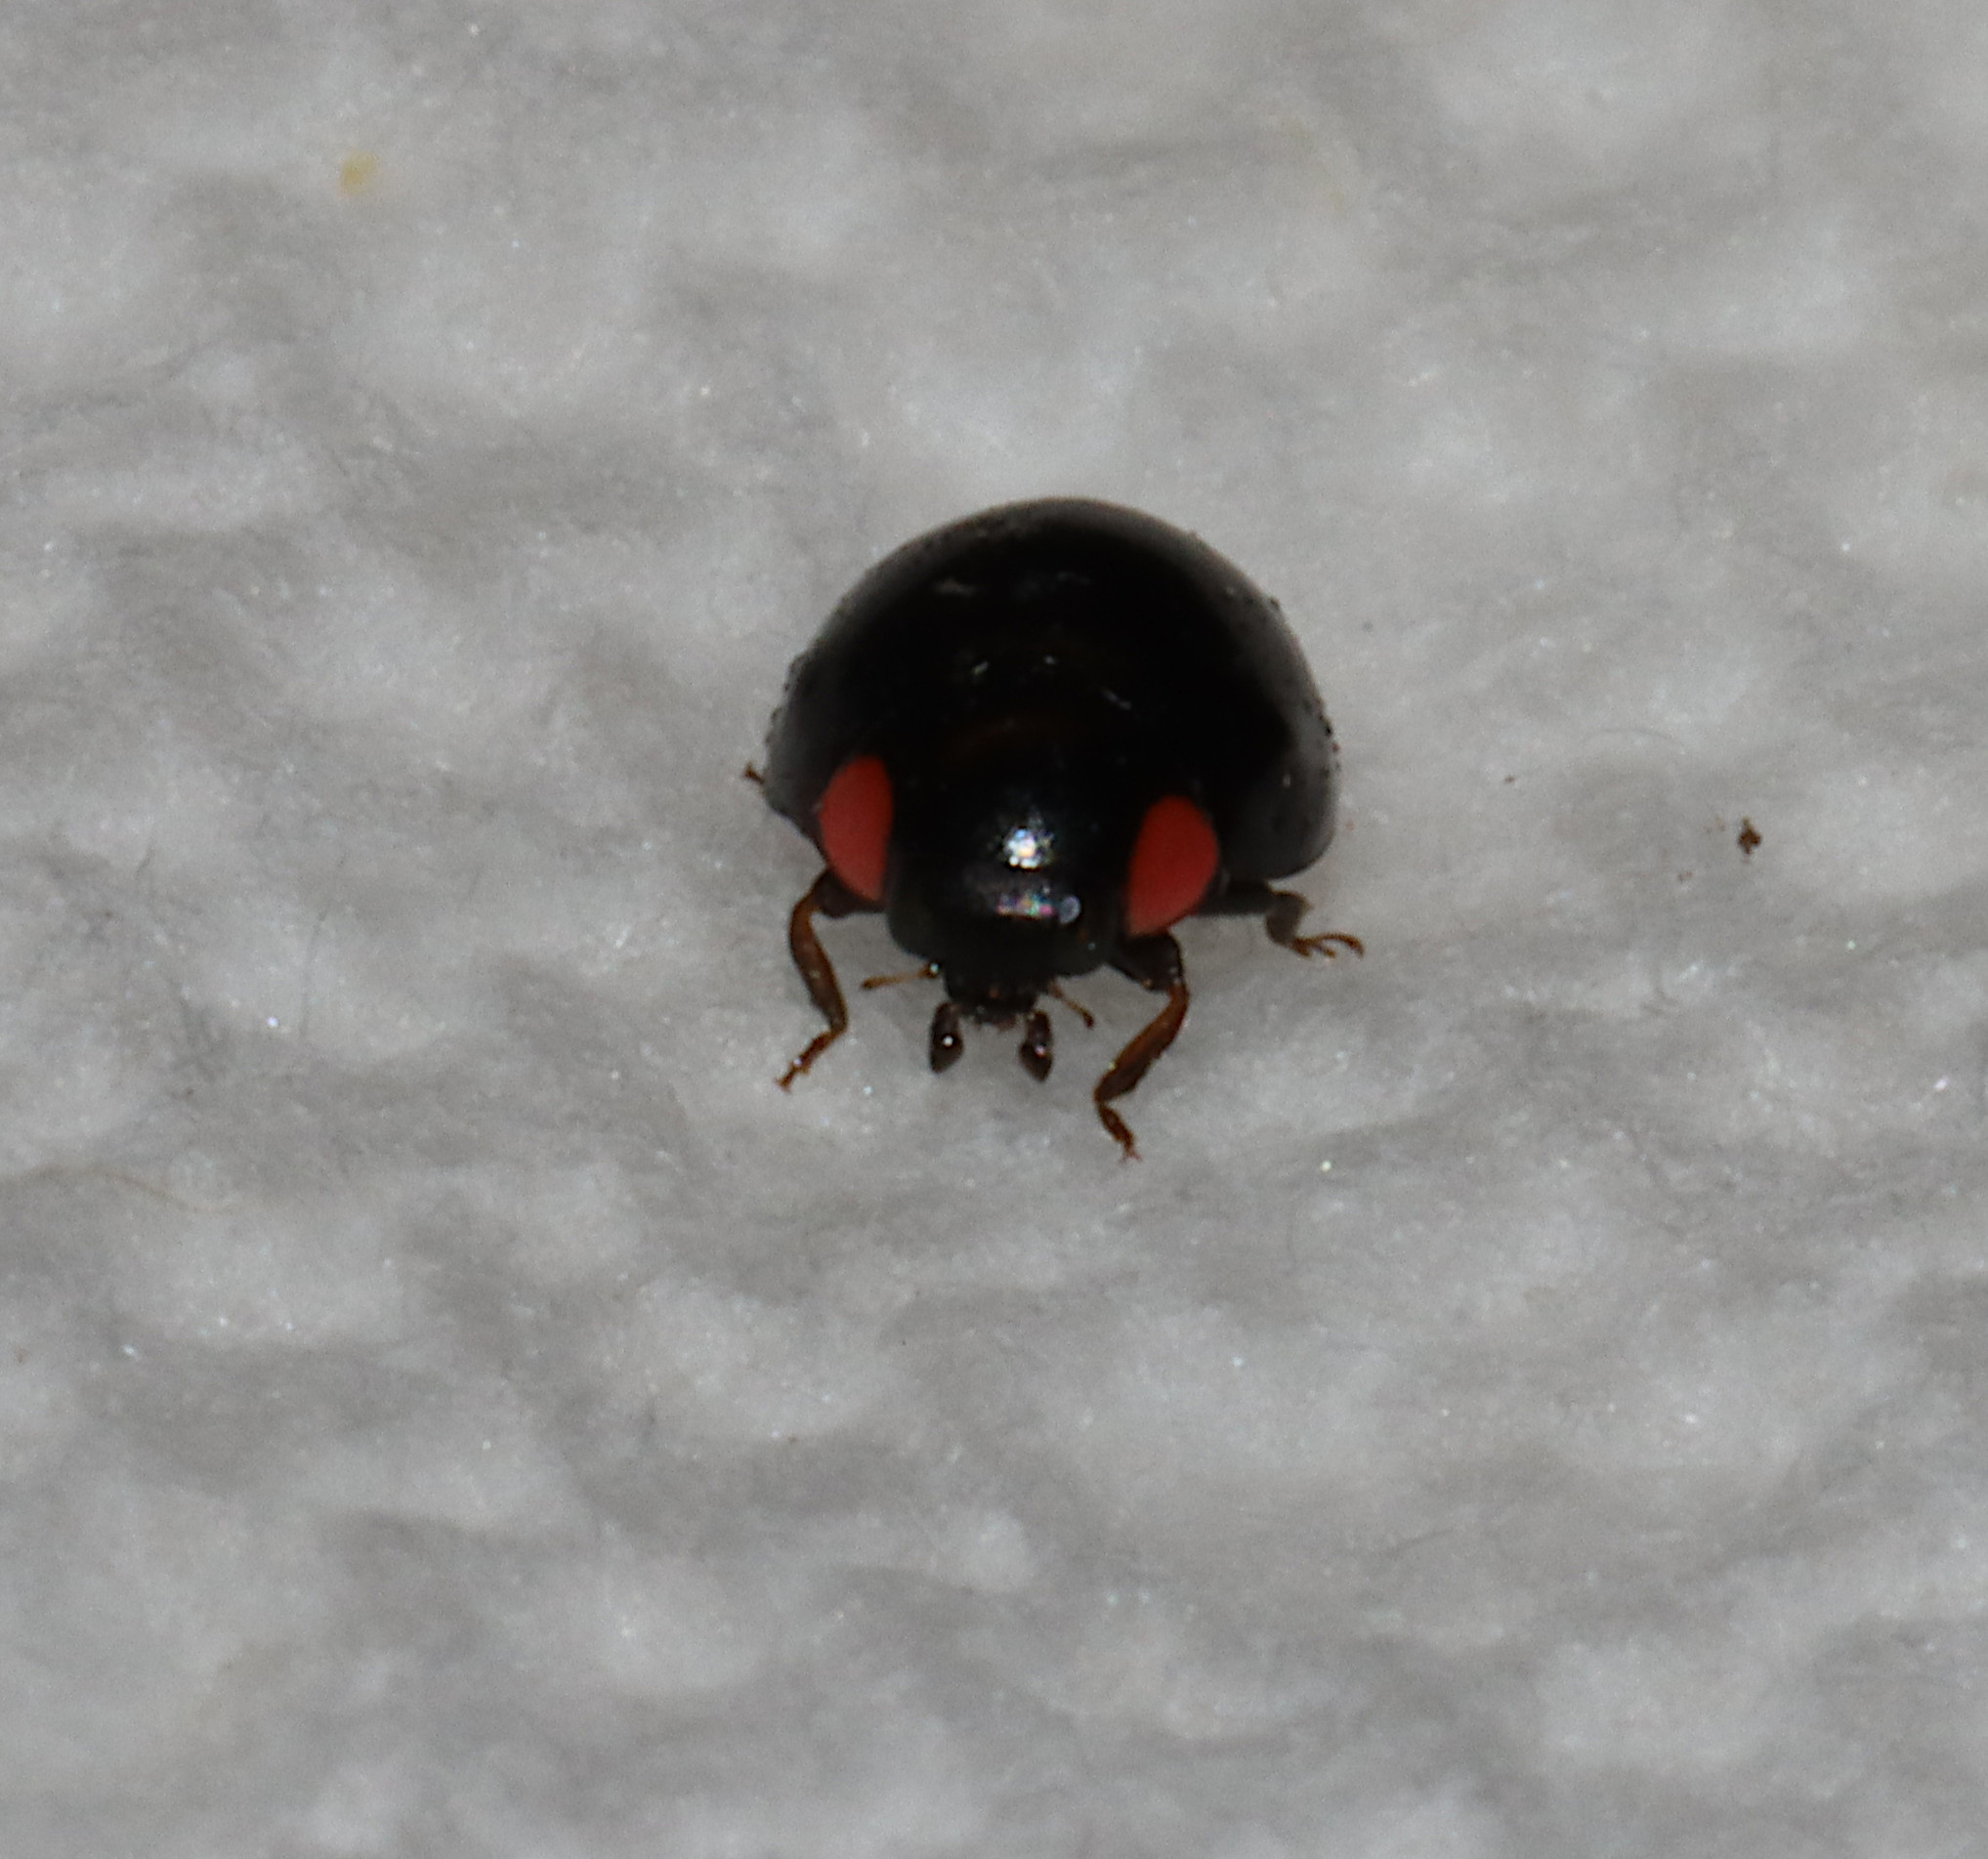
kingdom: Animalia
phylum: Arthropoda
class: Insecta
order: Coleoptera
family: Coccinellidae
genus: Hyperaspis
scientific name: Hyperaspis bigeminata
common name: Bigeminate sigil lady beetle
